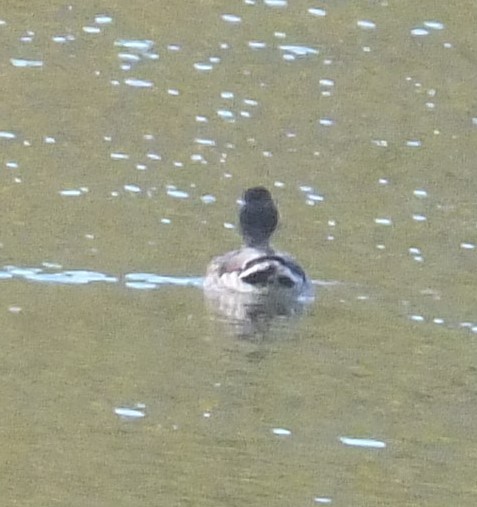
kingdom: Animalia
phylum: Chordata
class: Aves
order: Anseriformes
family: Anatidae
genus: Anas
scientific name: Anas platyrhynchos
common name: Mallard
